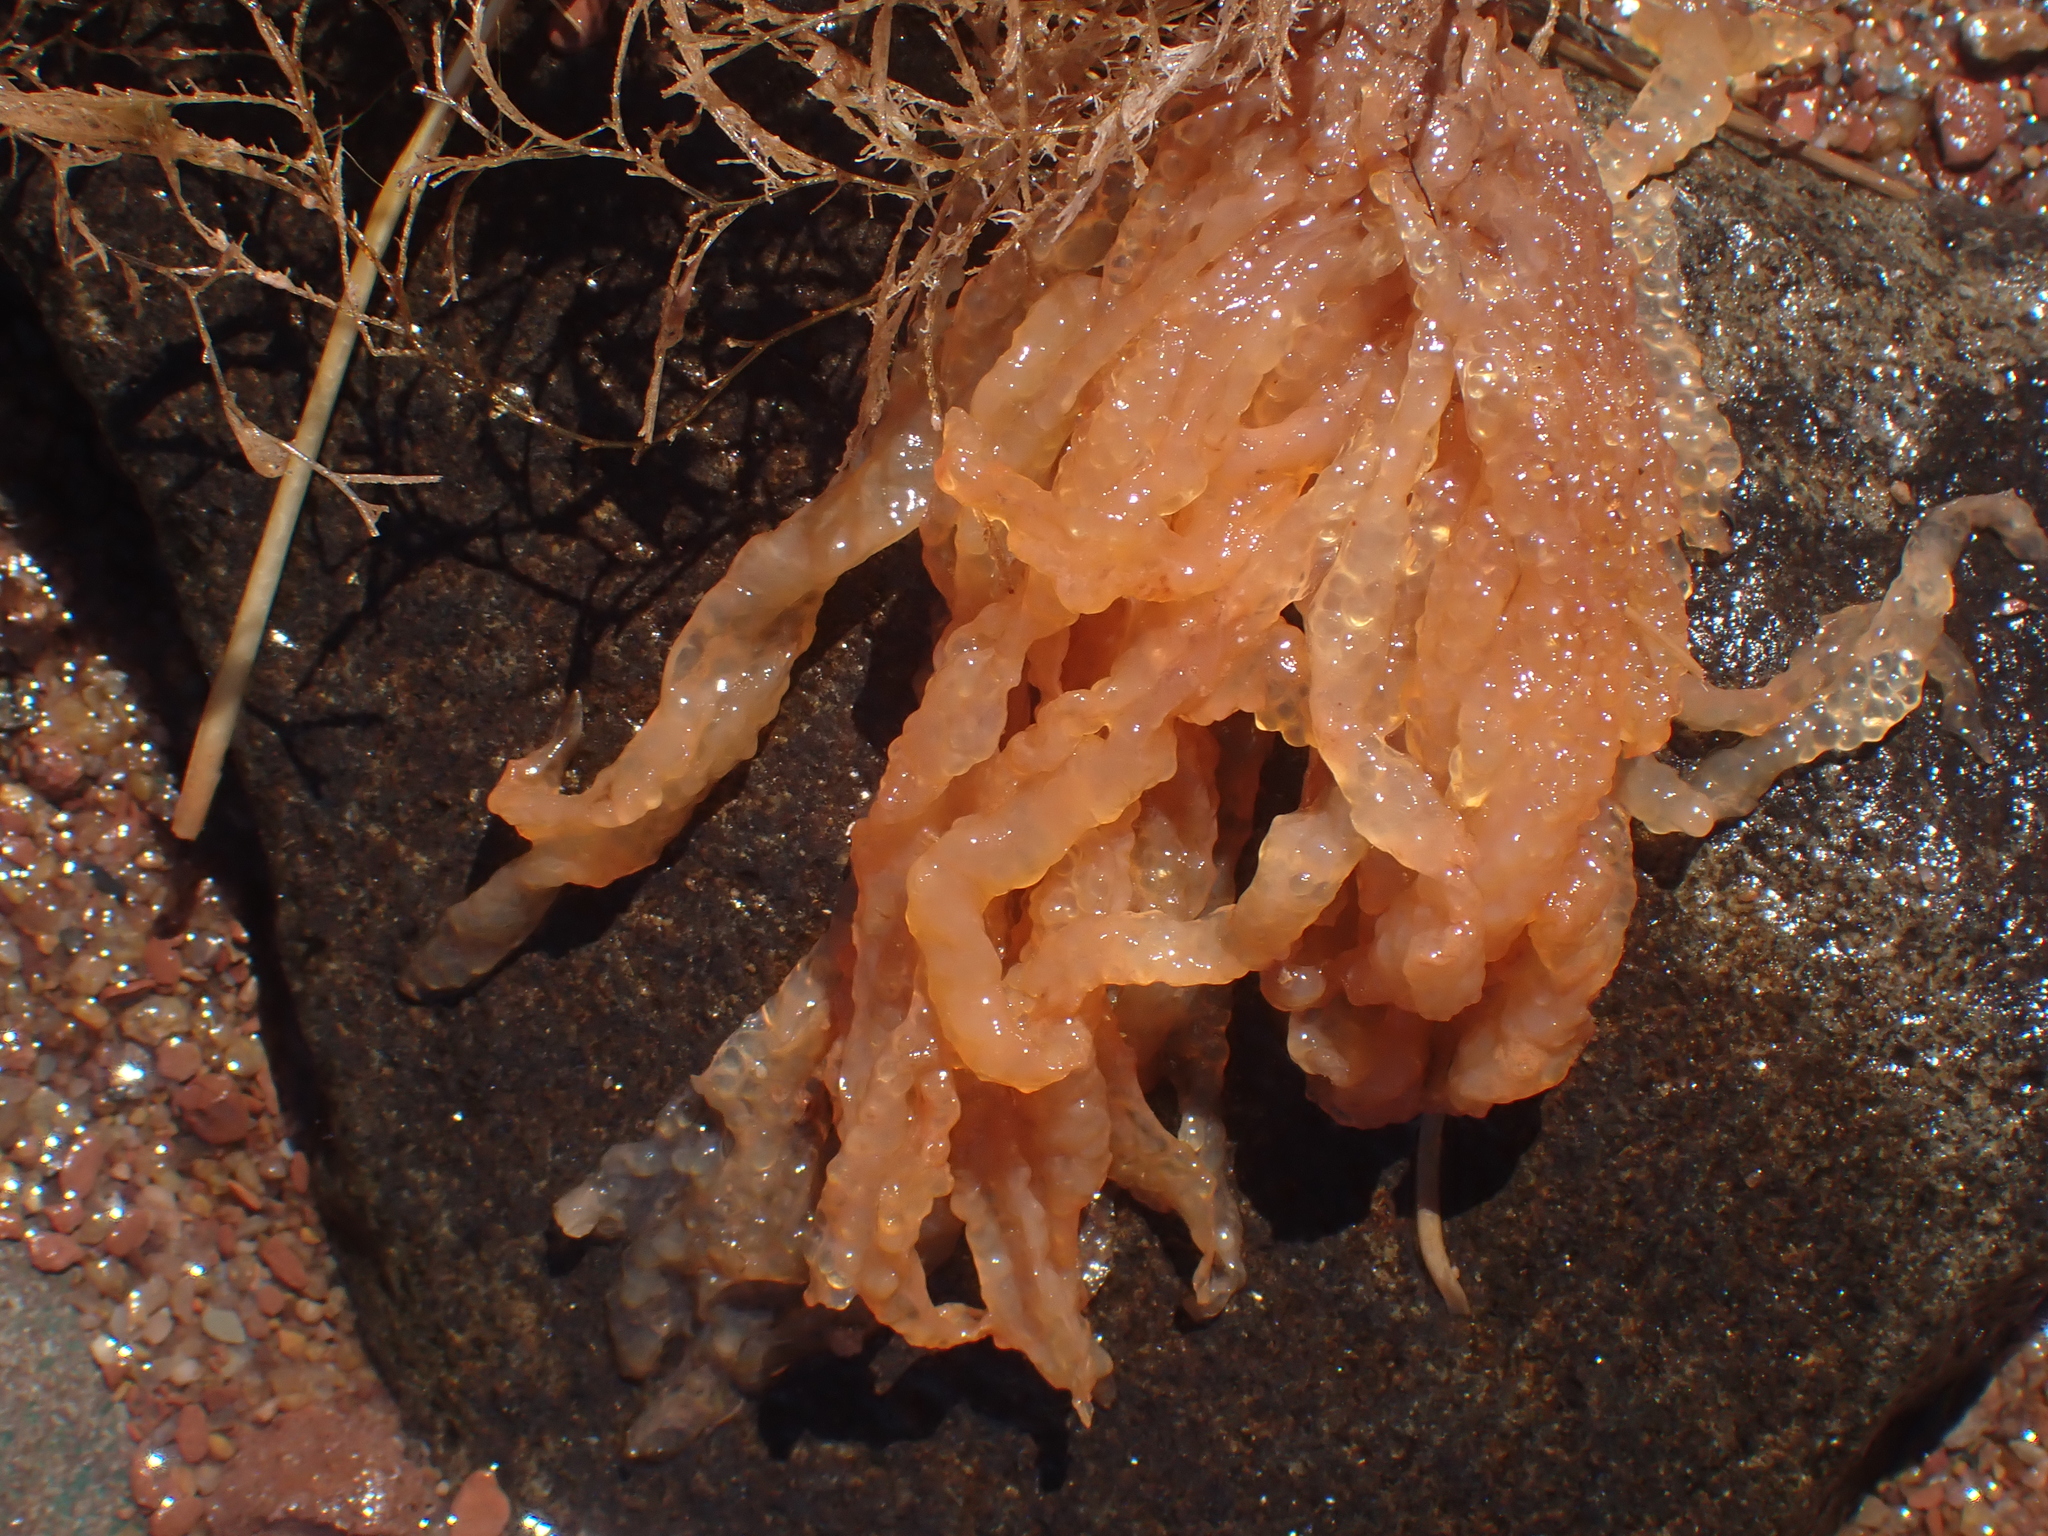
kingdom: Animalia
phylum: Mollusca
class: Cephalopoda
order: Myopsida
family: Loliginidae
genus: Doryteuthis
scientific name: Doryteuthis pealeii
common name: Long-finned inshore squid
